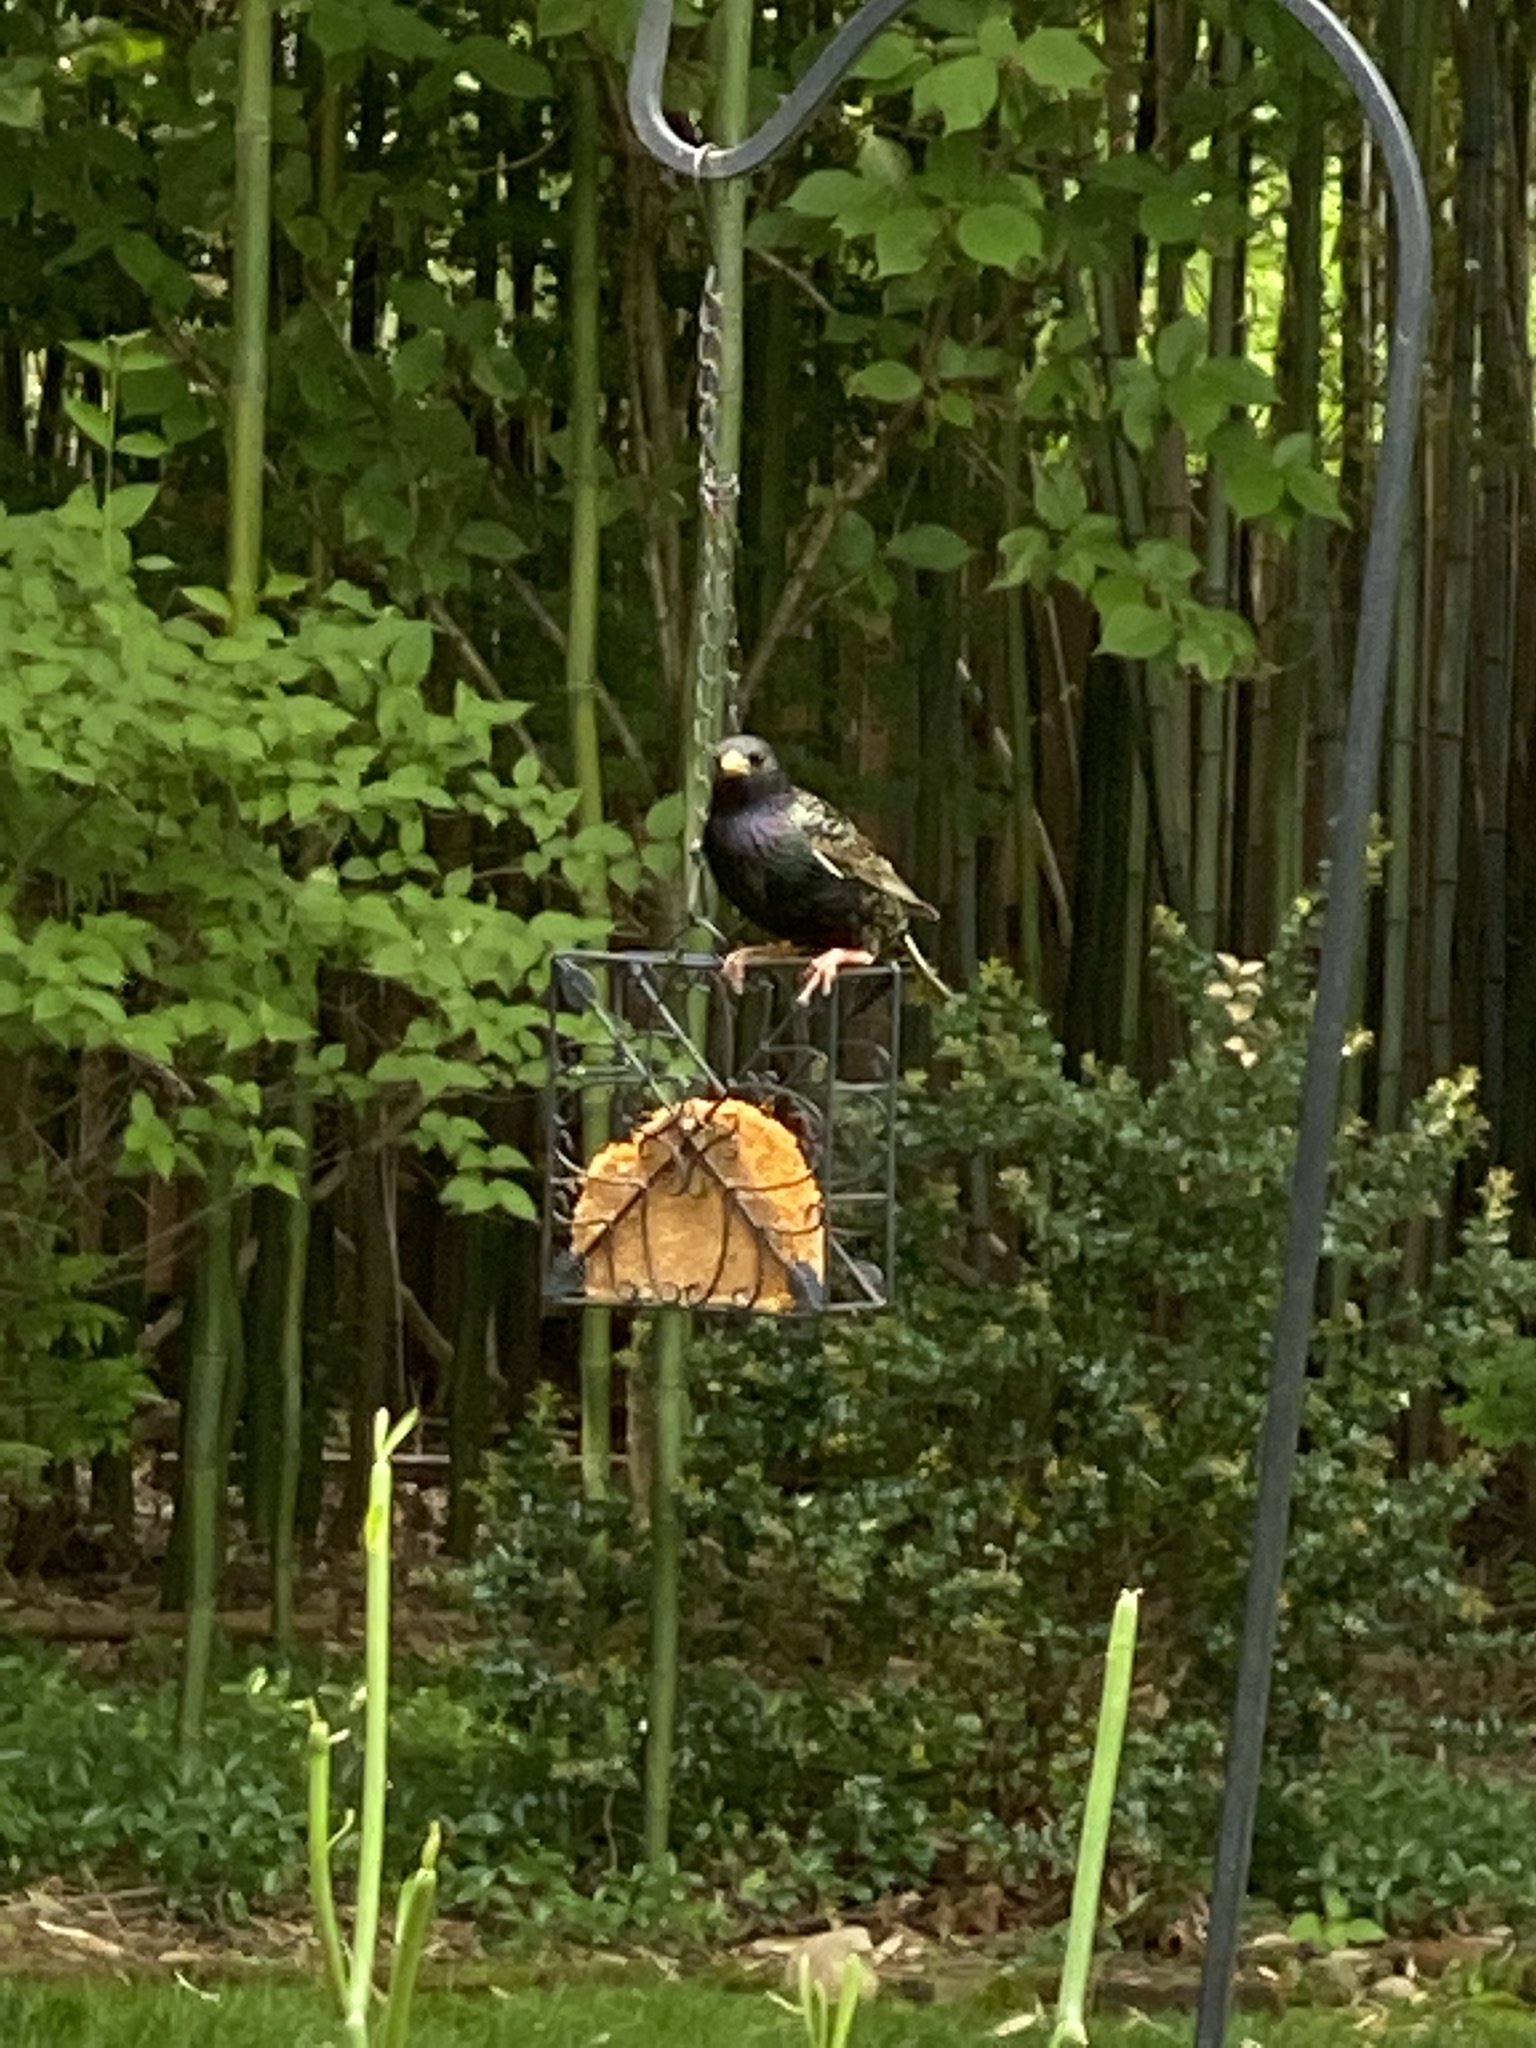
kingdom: Animalia
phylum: Chordata
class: Aves
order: Passeriformes
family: Sturnidae
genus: Sturnus
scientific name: Sturnus vulgaris
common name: Common starling
